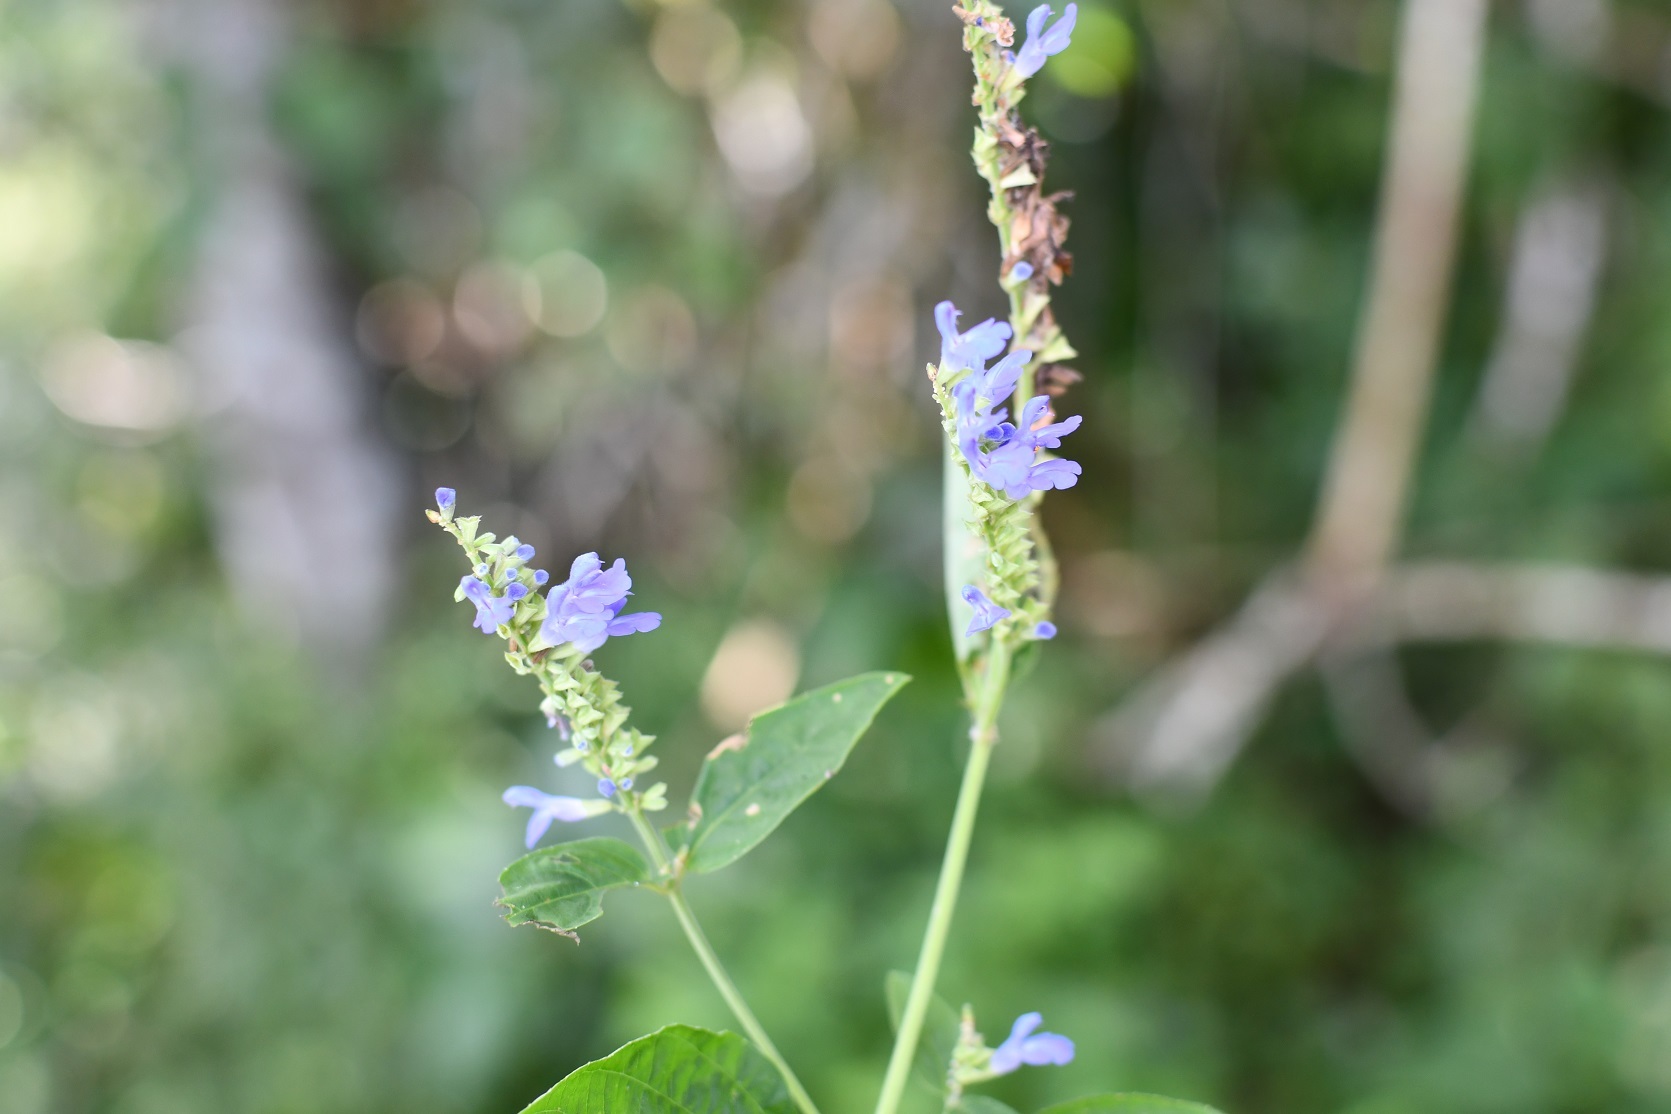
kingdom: Plantae
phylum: Tracheophyta
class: Magnoliopsida
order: Lamiales
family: Lamiaceae
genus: Salvia
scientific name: Salvia connivens
